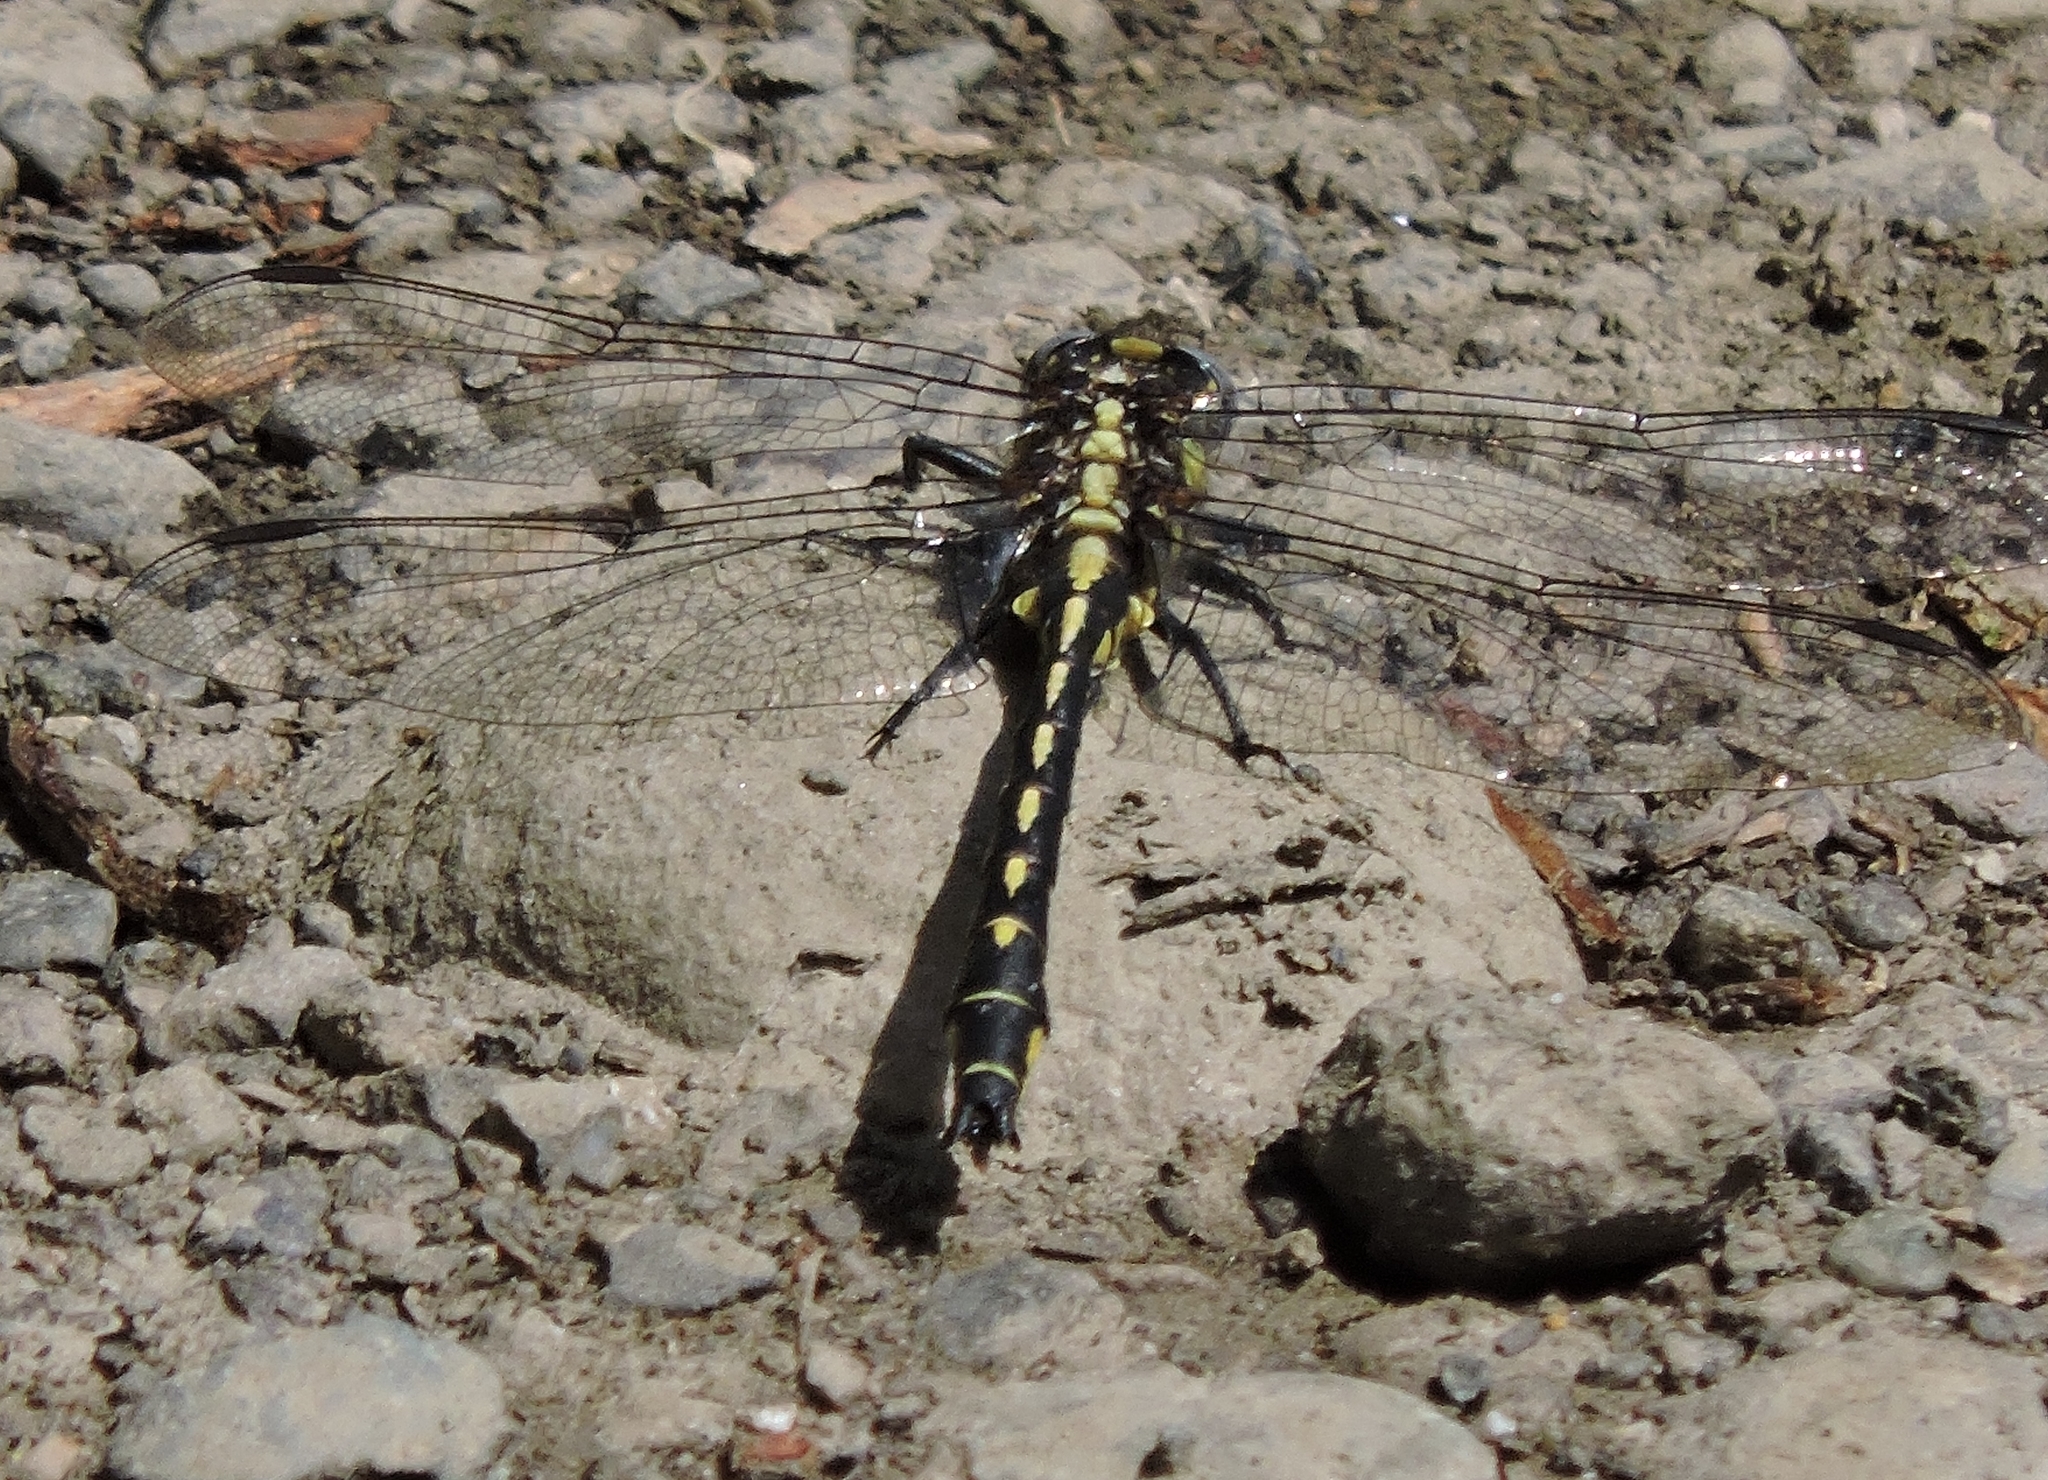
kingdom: Animalia
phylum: Arthropoda
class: Insecta
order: Odonata
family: Gomphidae
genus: Phanogomphus
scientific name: Phanogomphus kurilis
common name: Pacific clubtail
